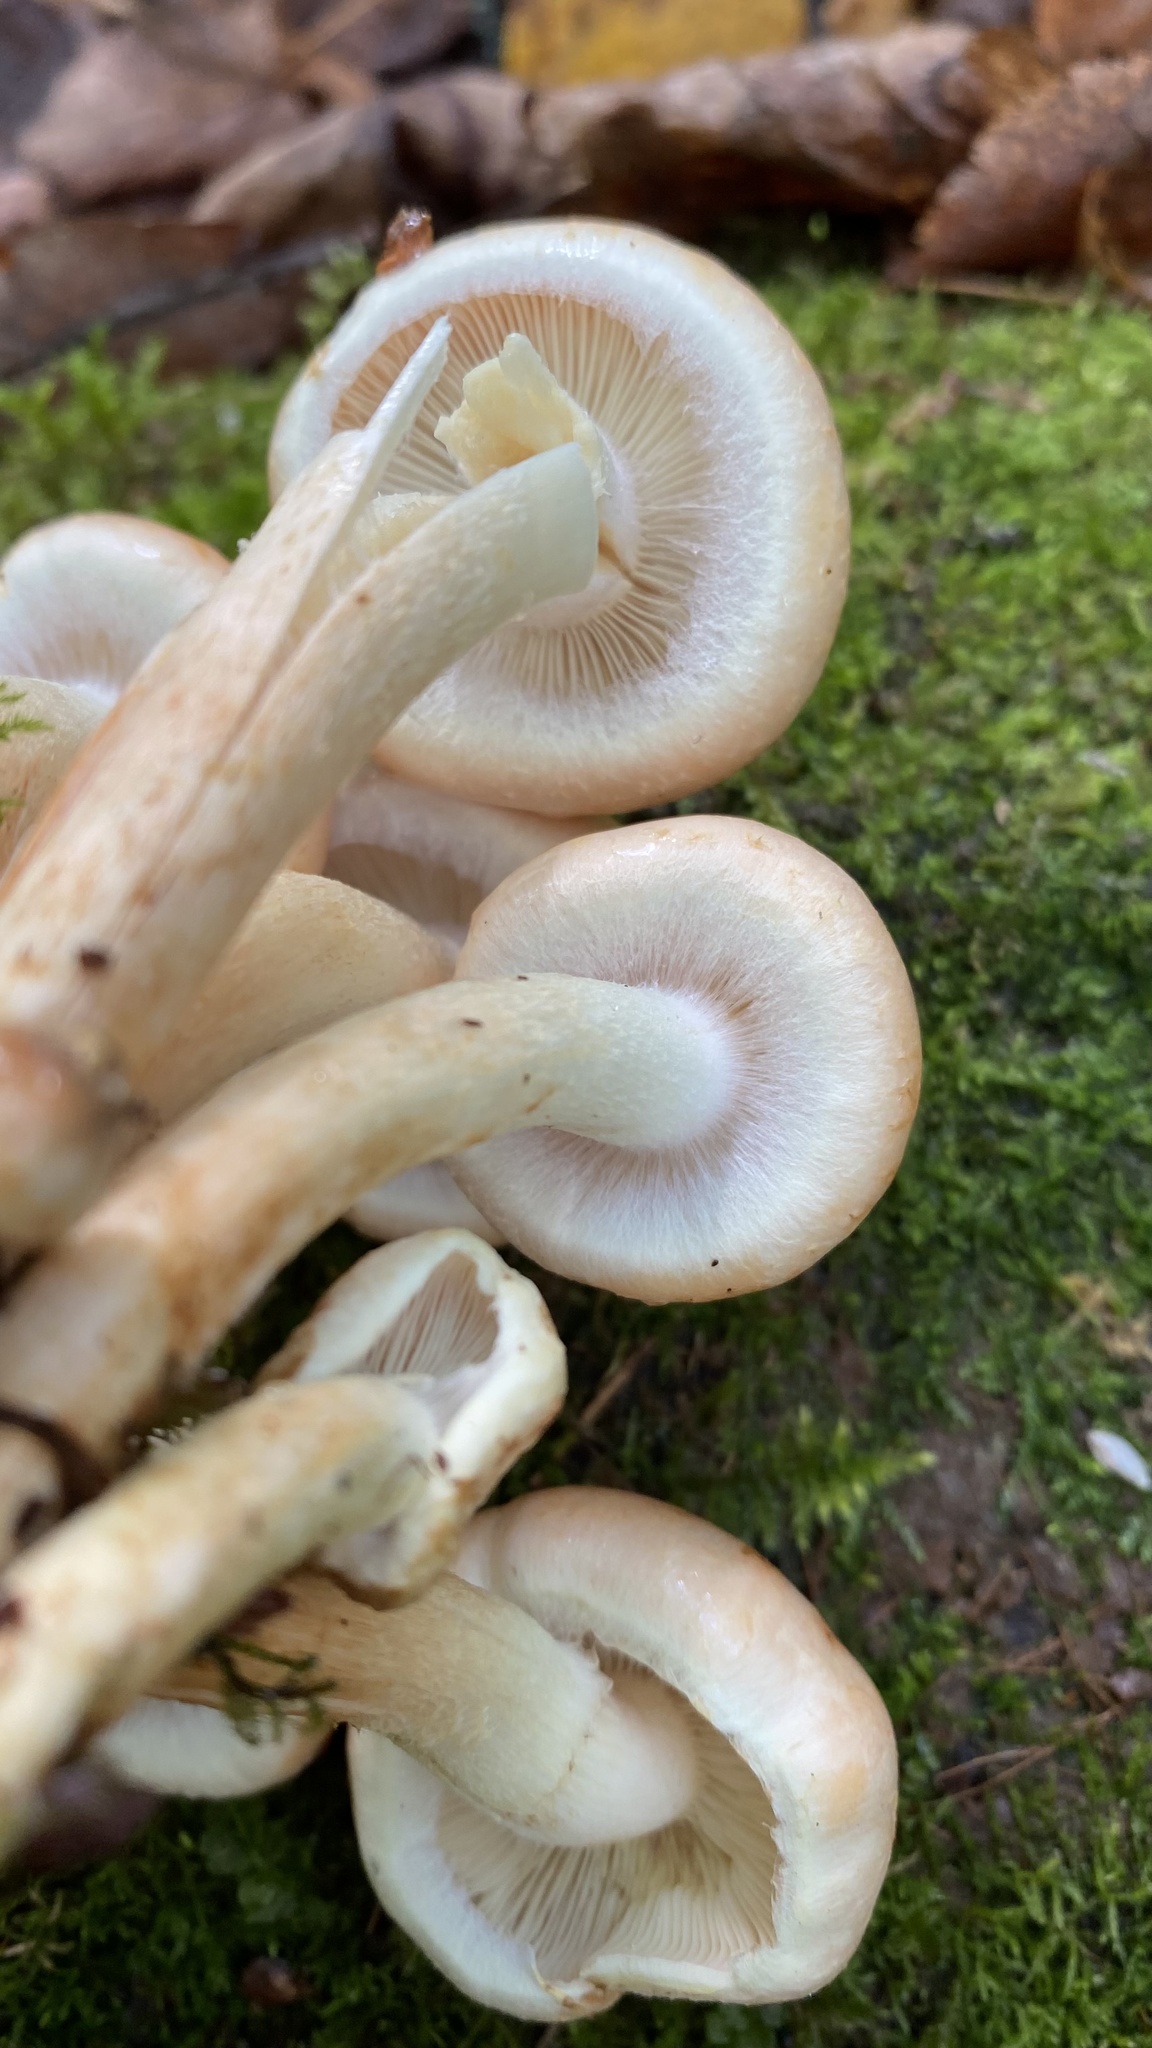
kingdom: Fungi
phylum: Basidiomycota
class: Agaricomycetes
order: Agaricales
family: Strophariaceae
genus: Hypholoma
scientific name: Hypholoma lateritium
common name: Brick caps
